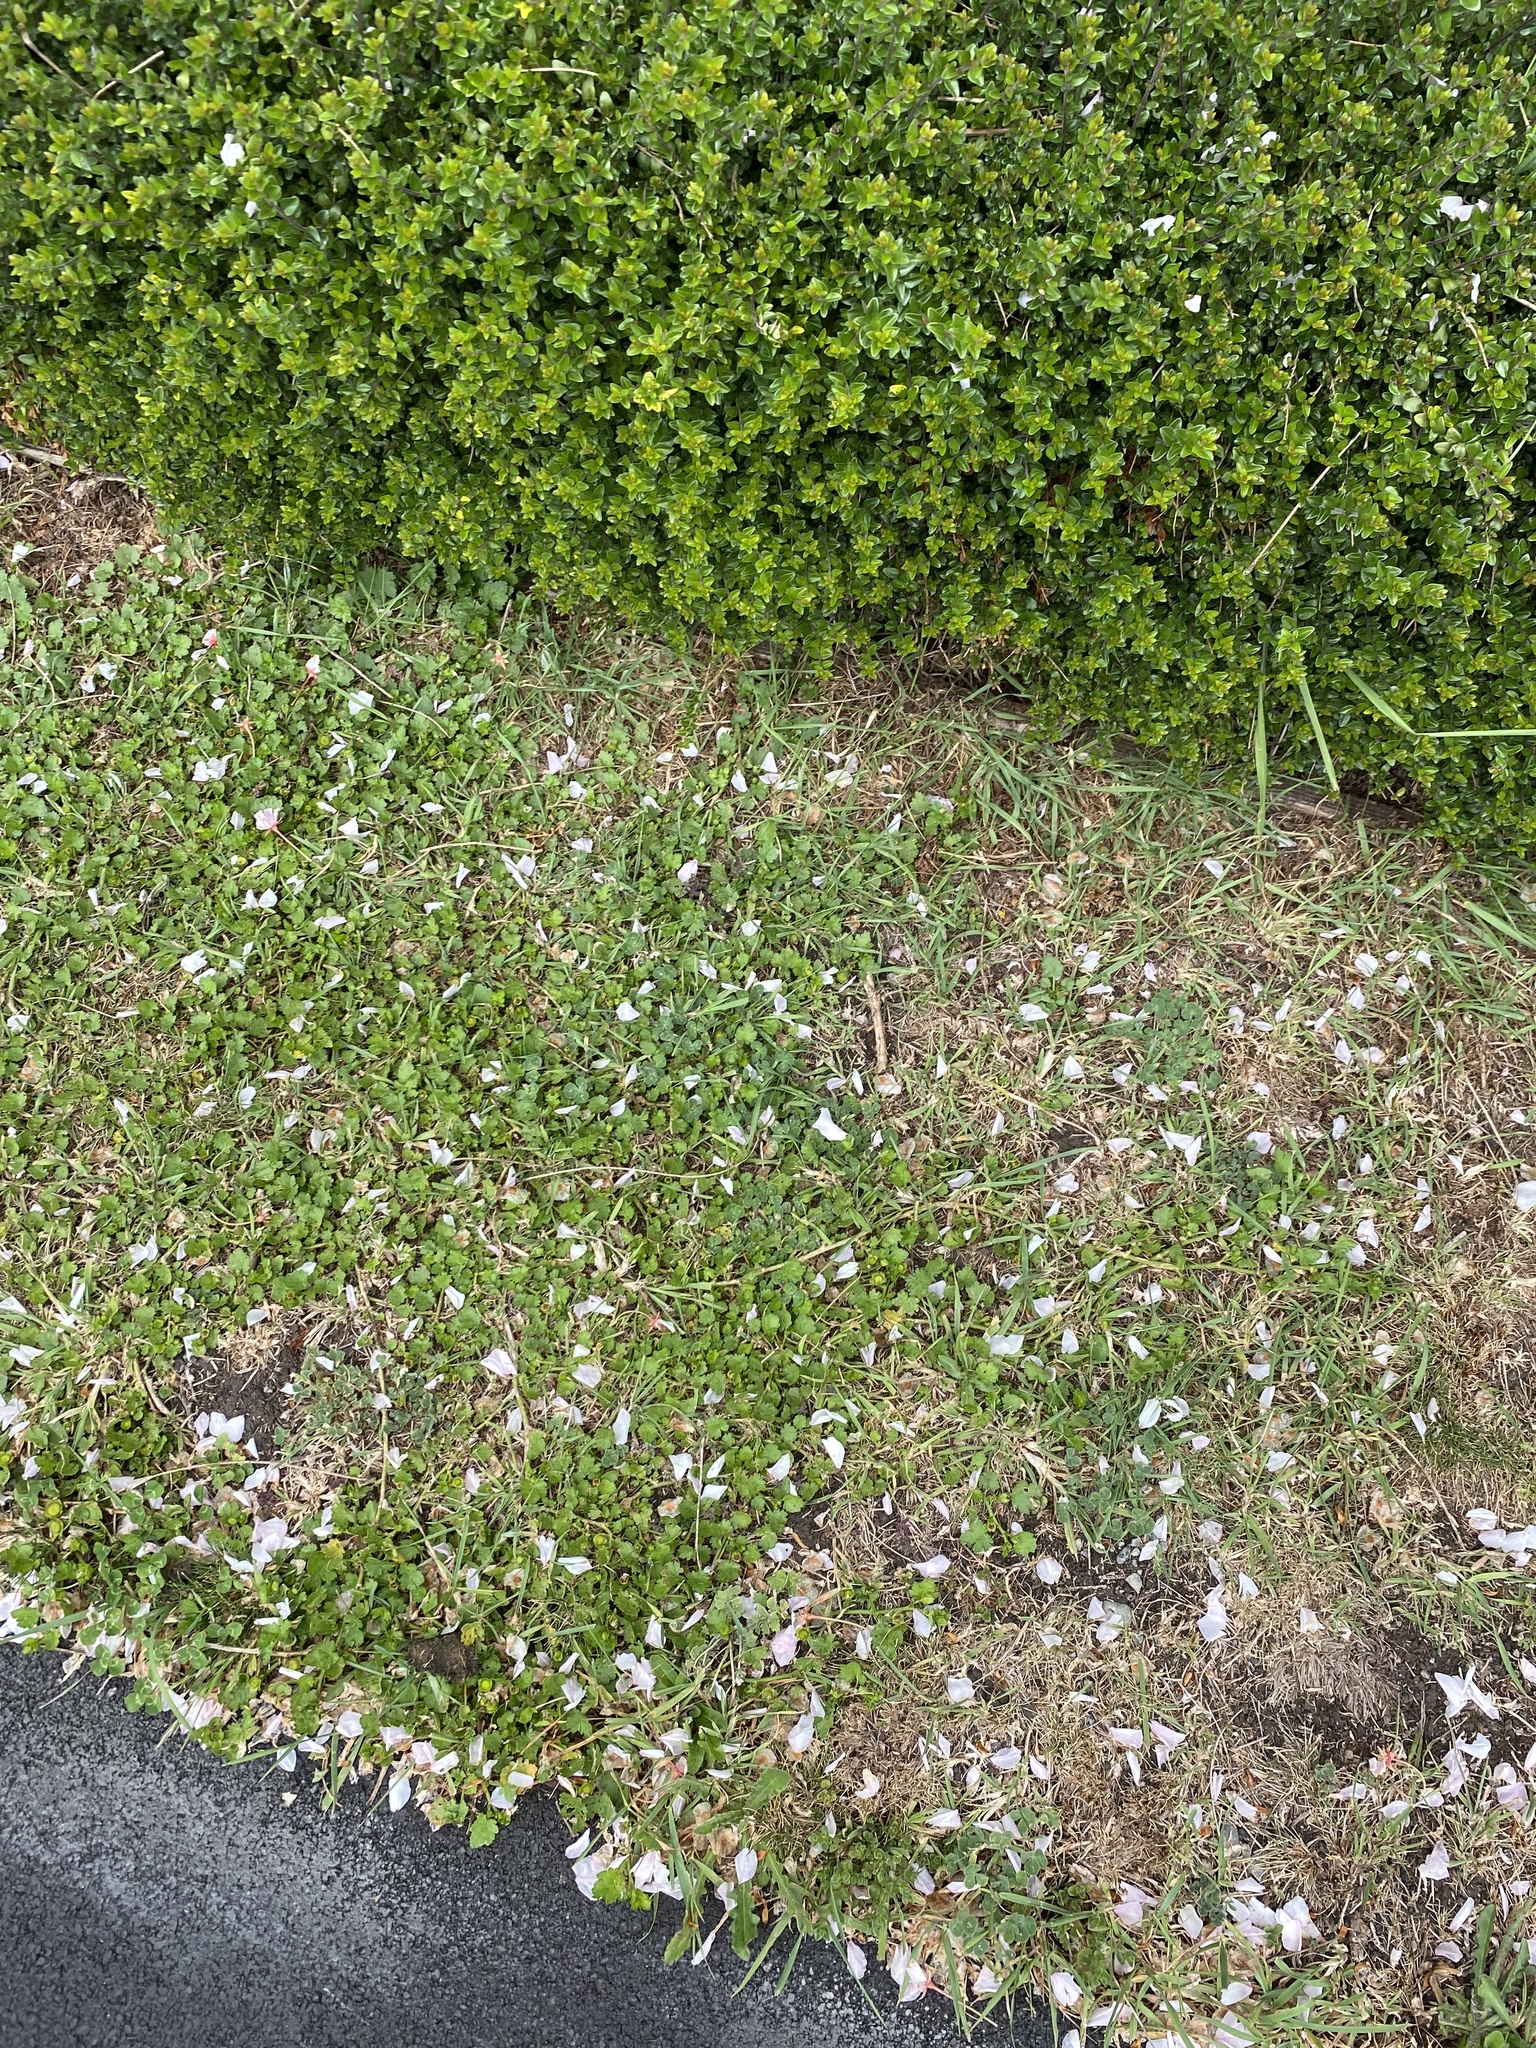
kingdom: Plantae
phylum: Tracheophyta
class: Magnoliopsida
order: Malvales
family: Malvaceae
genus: Modiola
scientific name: Modiola caroliniana
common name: Carolina bristlemallow
